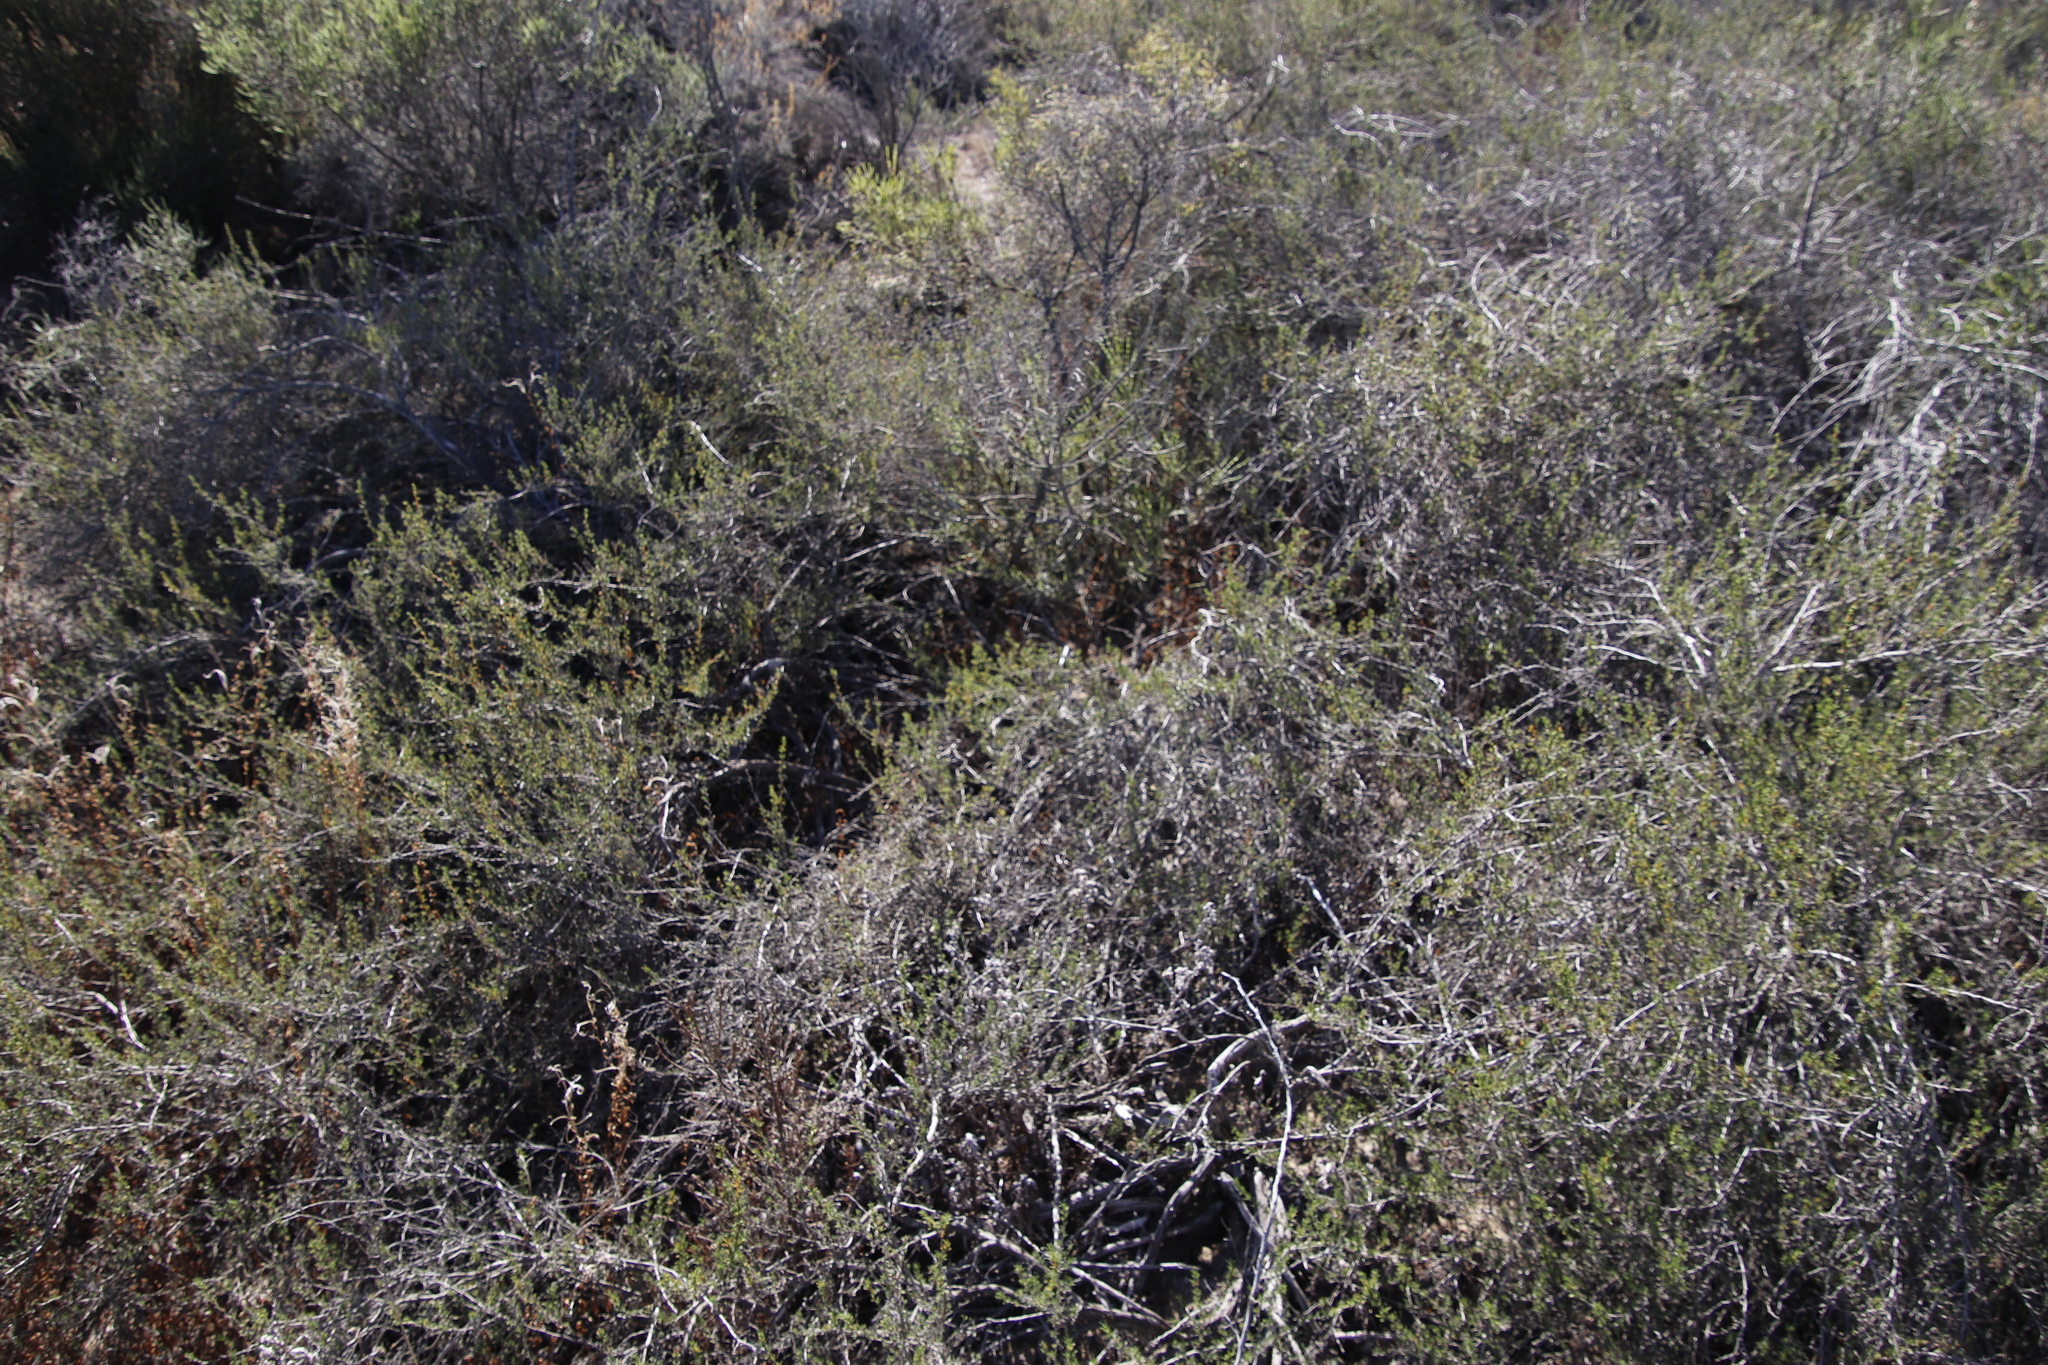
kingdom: Plantae
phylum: Tracheophyta
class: Magnoliopsida
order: Rosales
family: Rosaceae
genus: Cliffortia
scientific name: Cliffortia juniperina
